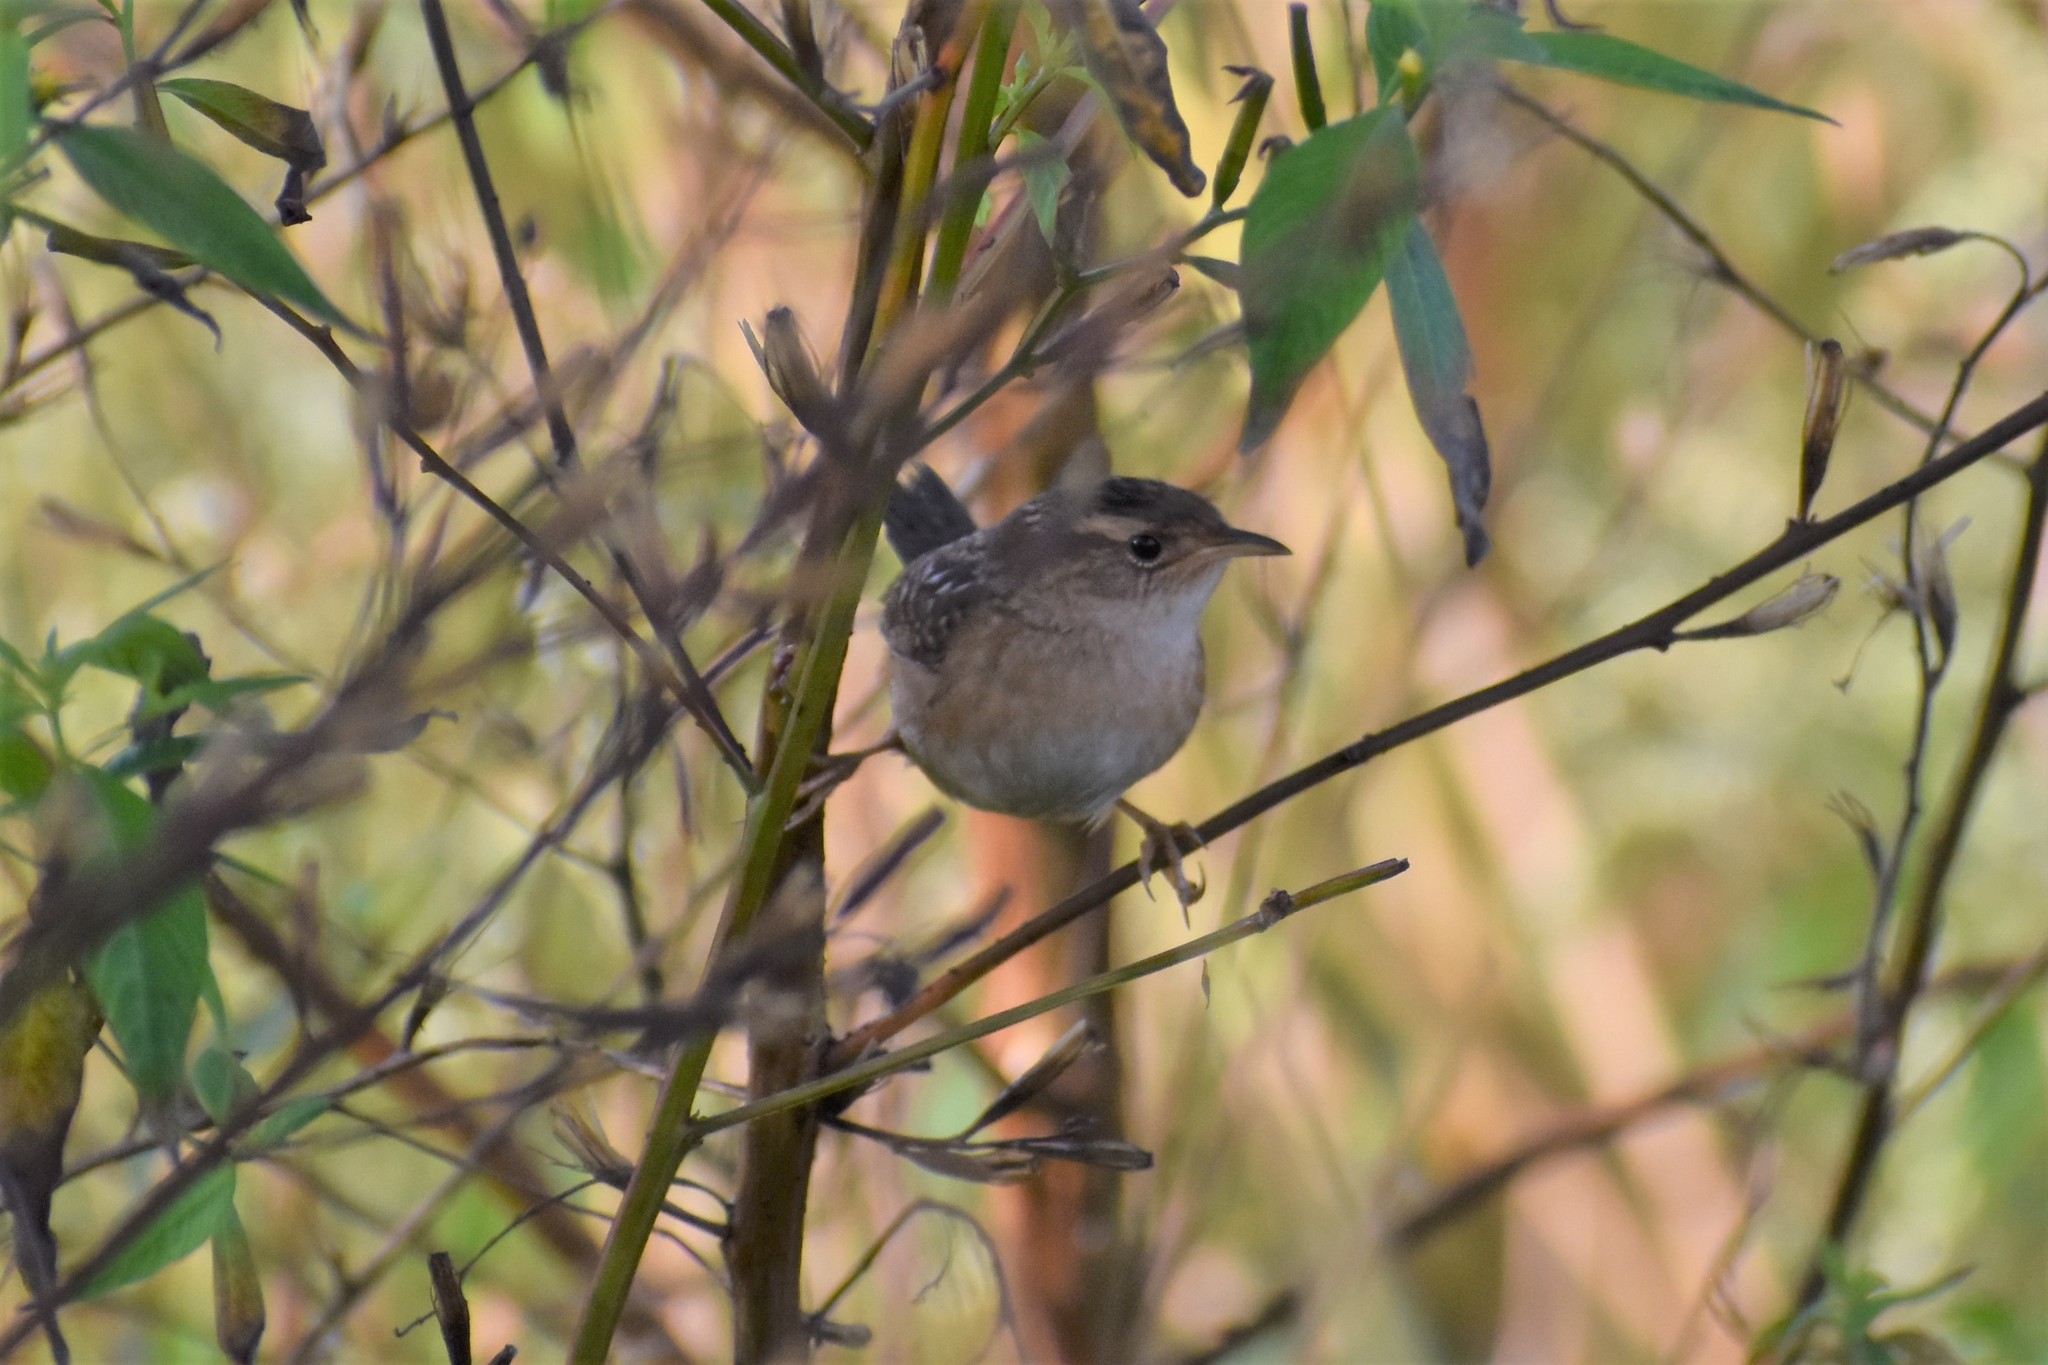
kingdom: Animalia
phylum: Chordata
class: Aves
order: Passeriformes
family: Troglodytidae
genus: Cistothorus
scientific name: Cistothorus platensis
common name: Sedge wren
